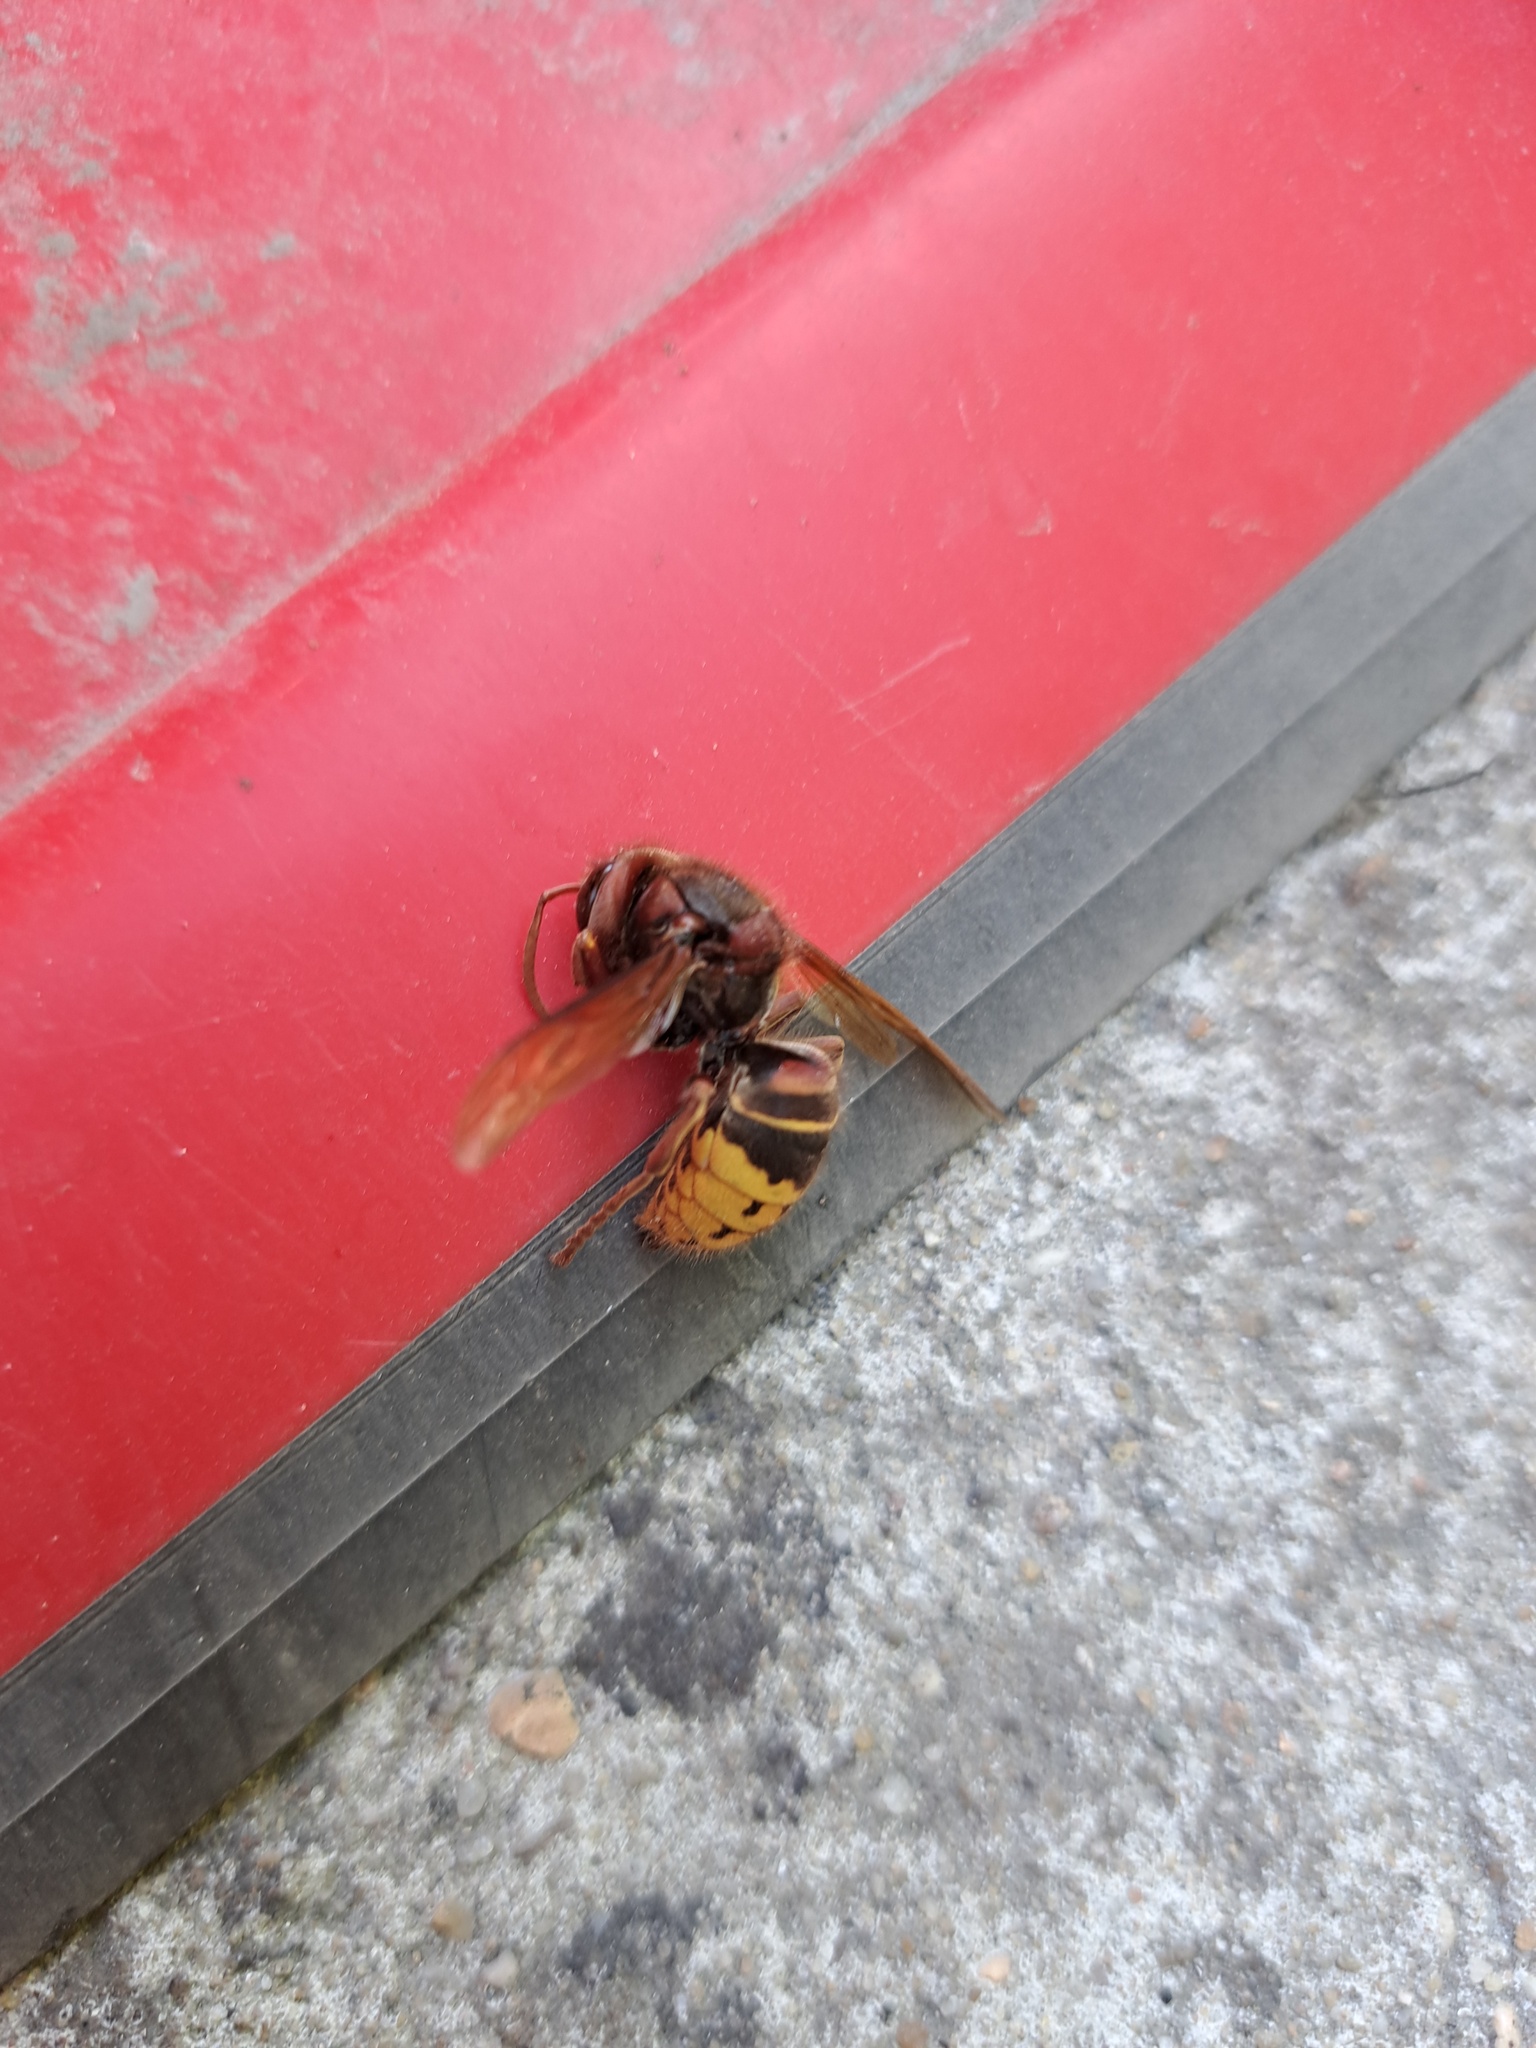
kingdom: Animalia
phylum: Arthropoda
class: Insecta
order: Hymenoptera
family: Vespidae
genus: Vespa
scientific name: Vespa crabro
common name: Hornet
